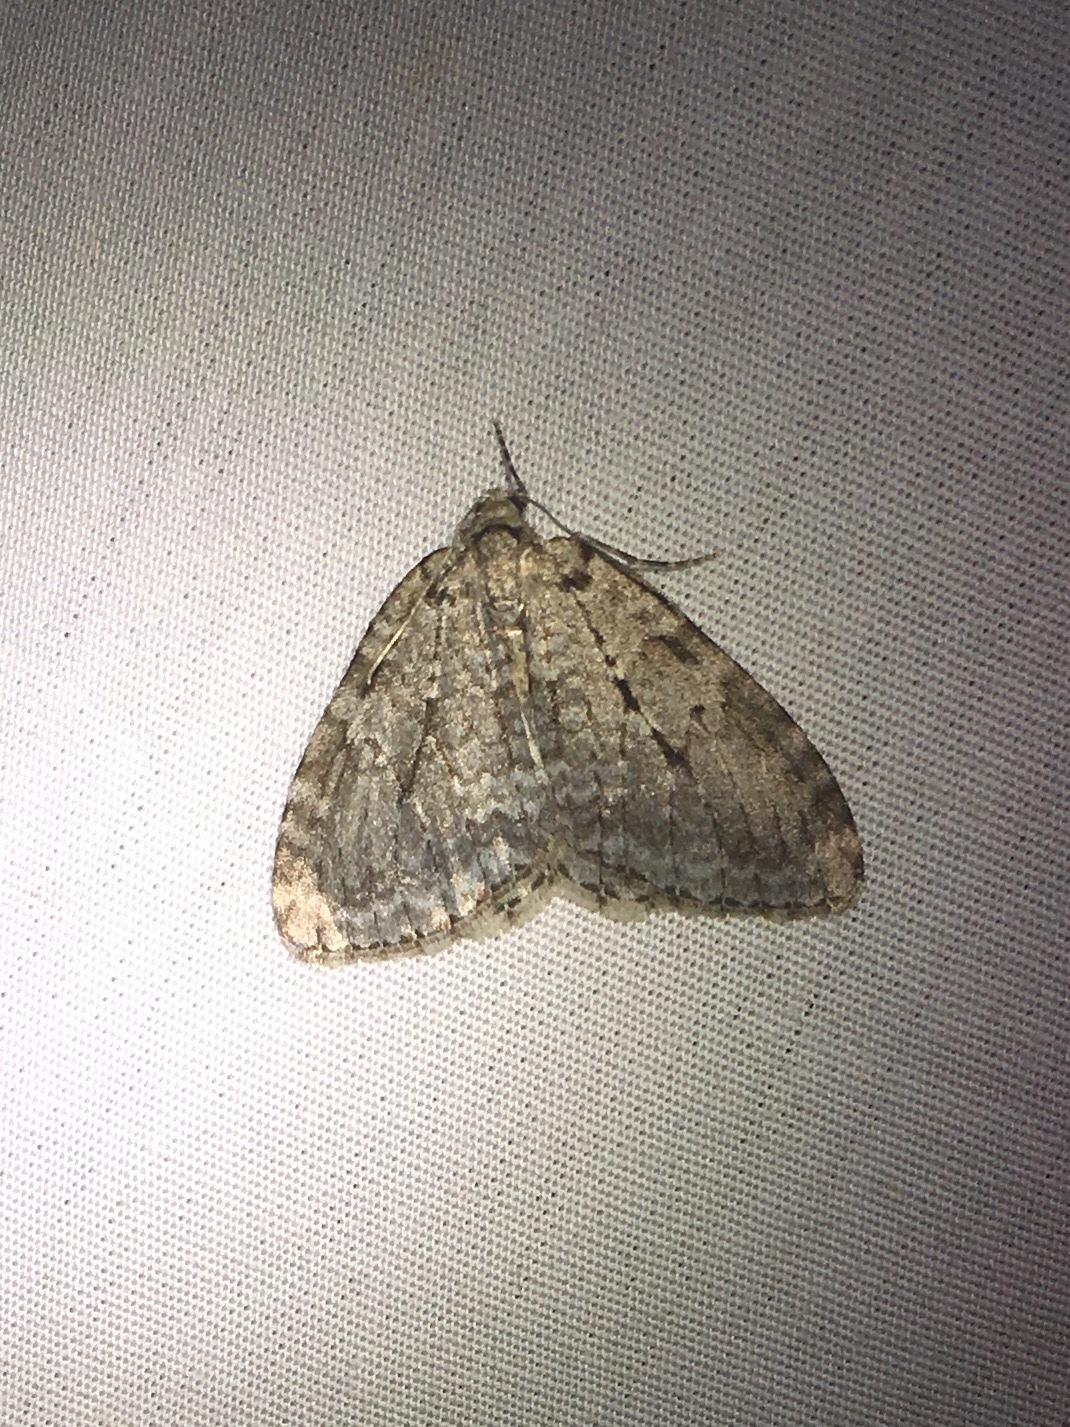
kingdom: Animalia
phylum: Arthropoda
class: Insecta
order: Lepidoptera
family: Geometridae
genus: Epirrita
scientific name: Epirrita autumnata
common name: Autumnal moth
